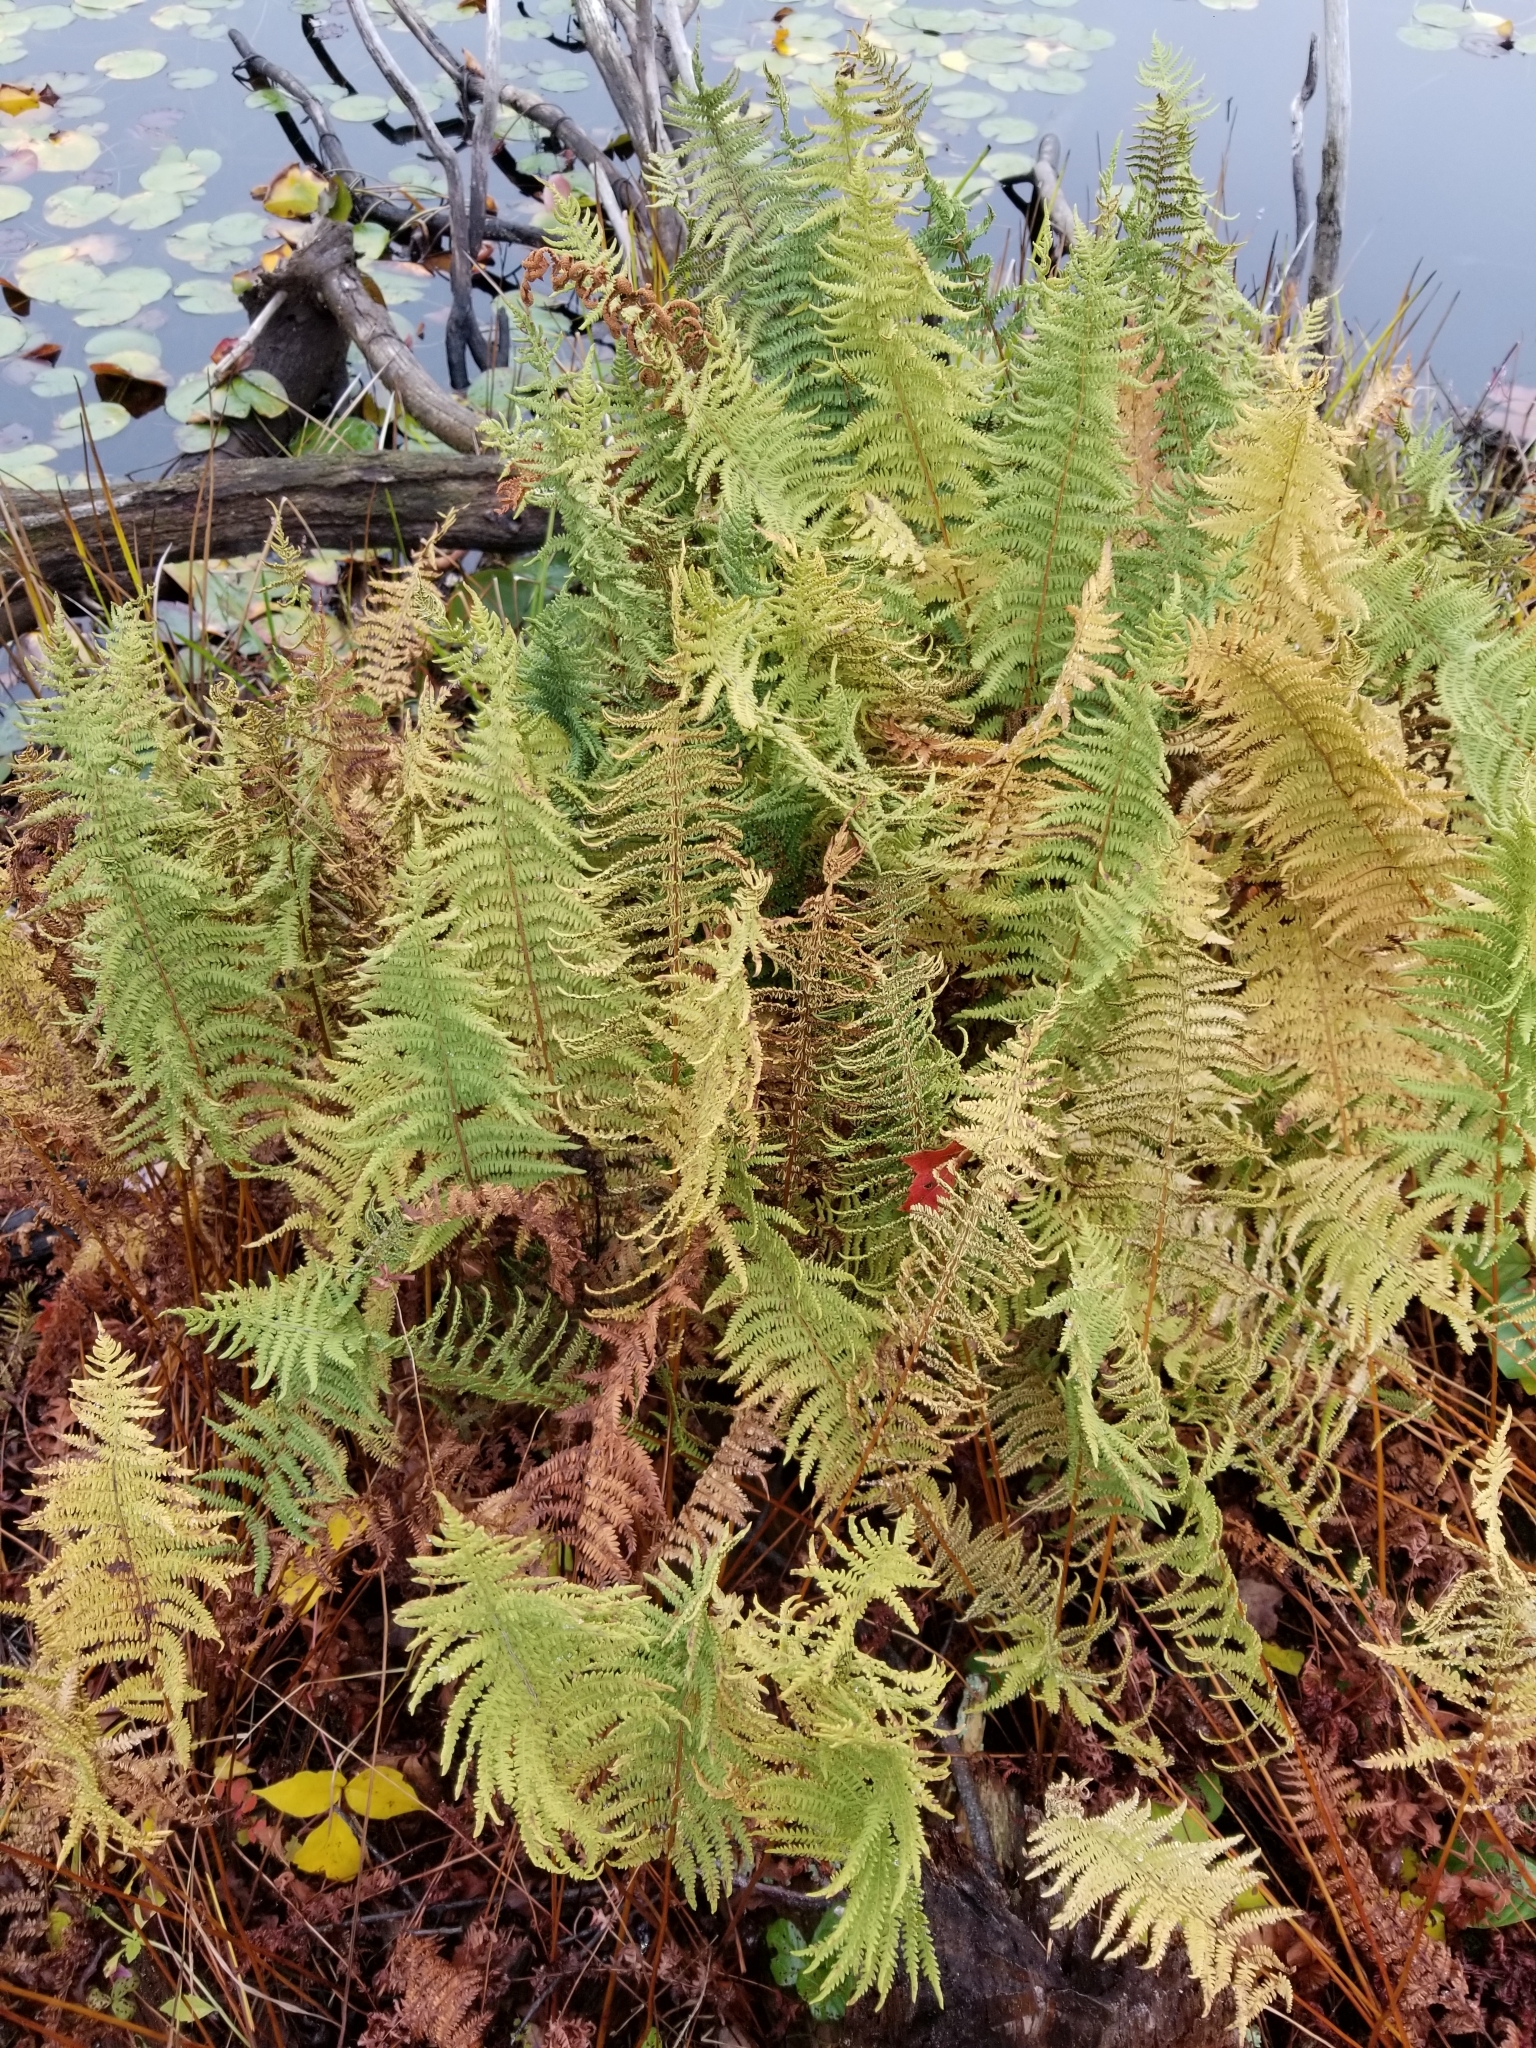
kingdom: Plantae
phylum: Tracheophyta
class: Polypodiopsida
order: Polypodiales
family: Thelypteridaceae
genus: Thelypteris
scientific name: Thelypteris palustris
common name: Marsh fern
